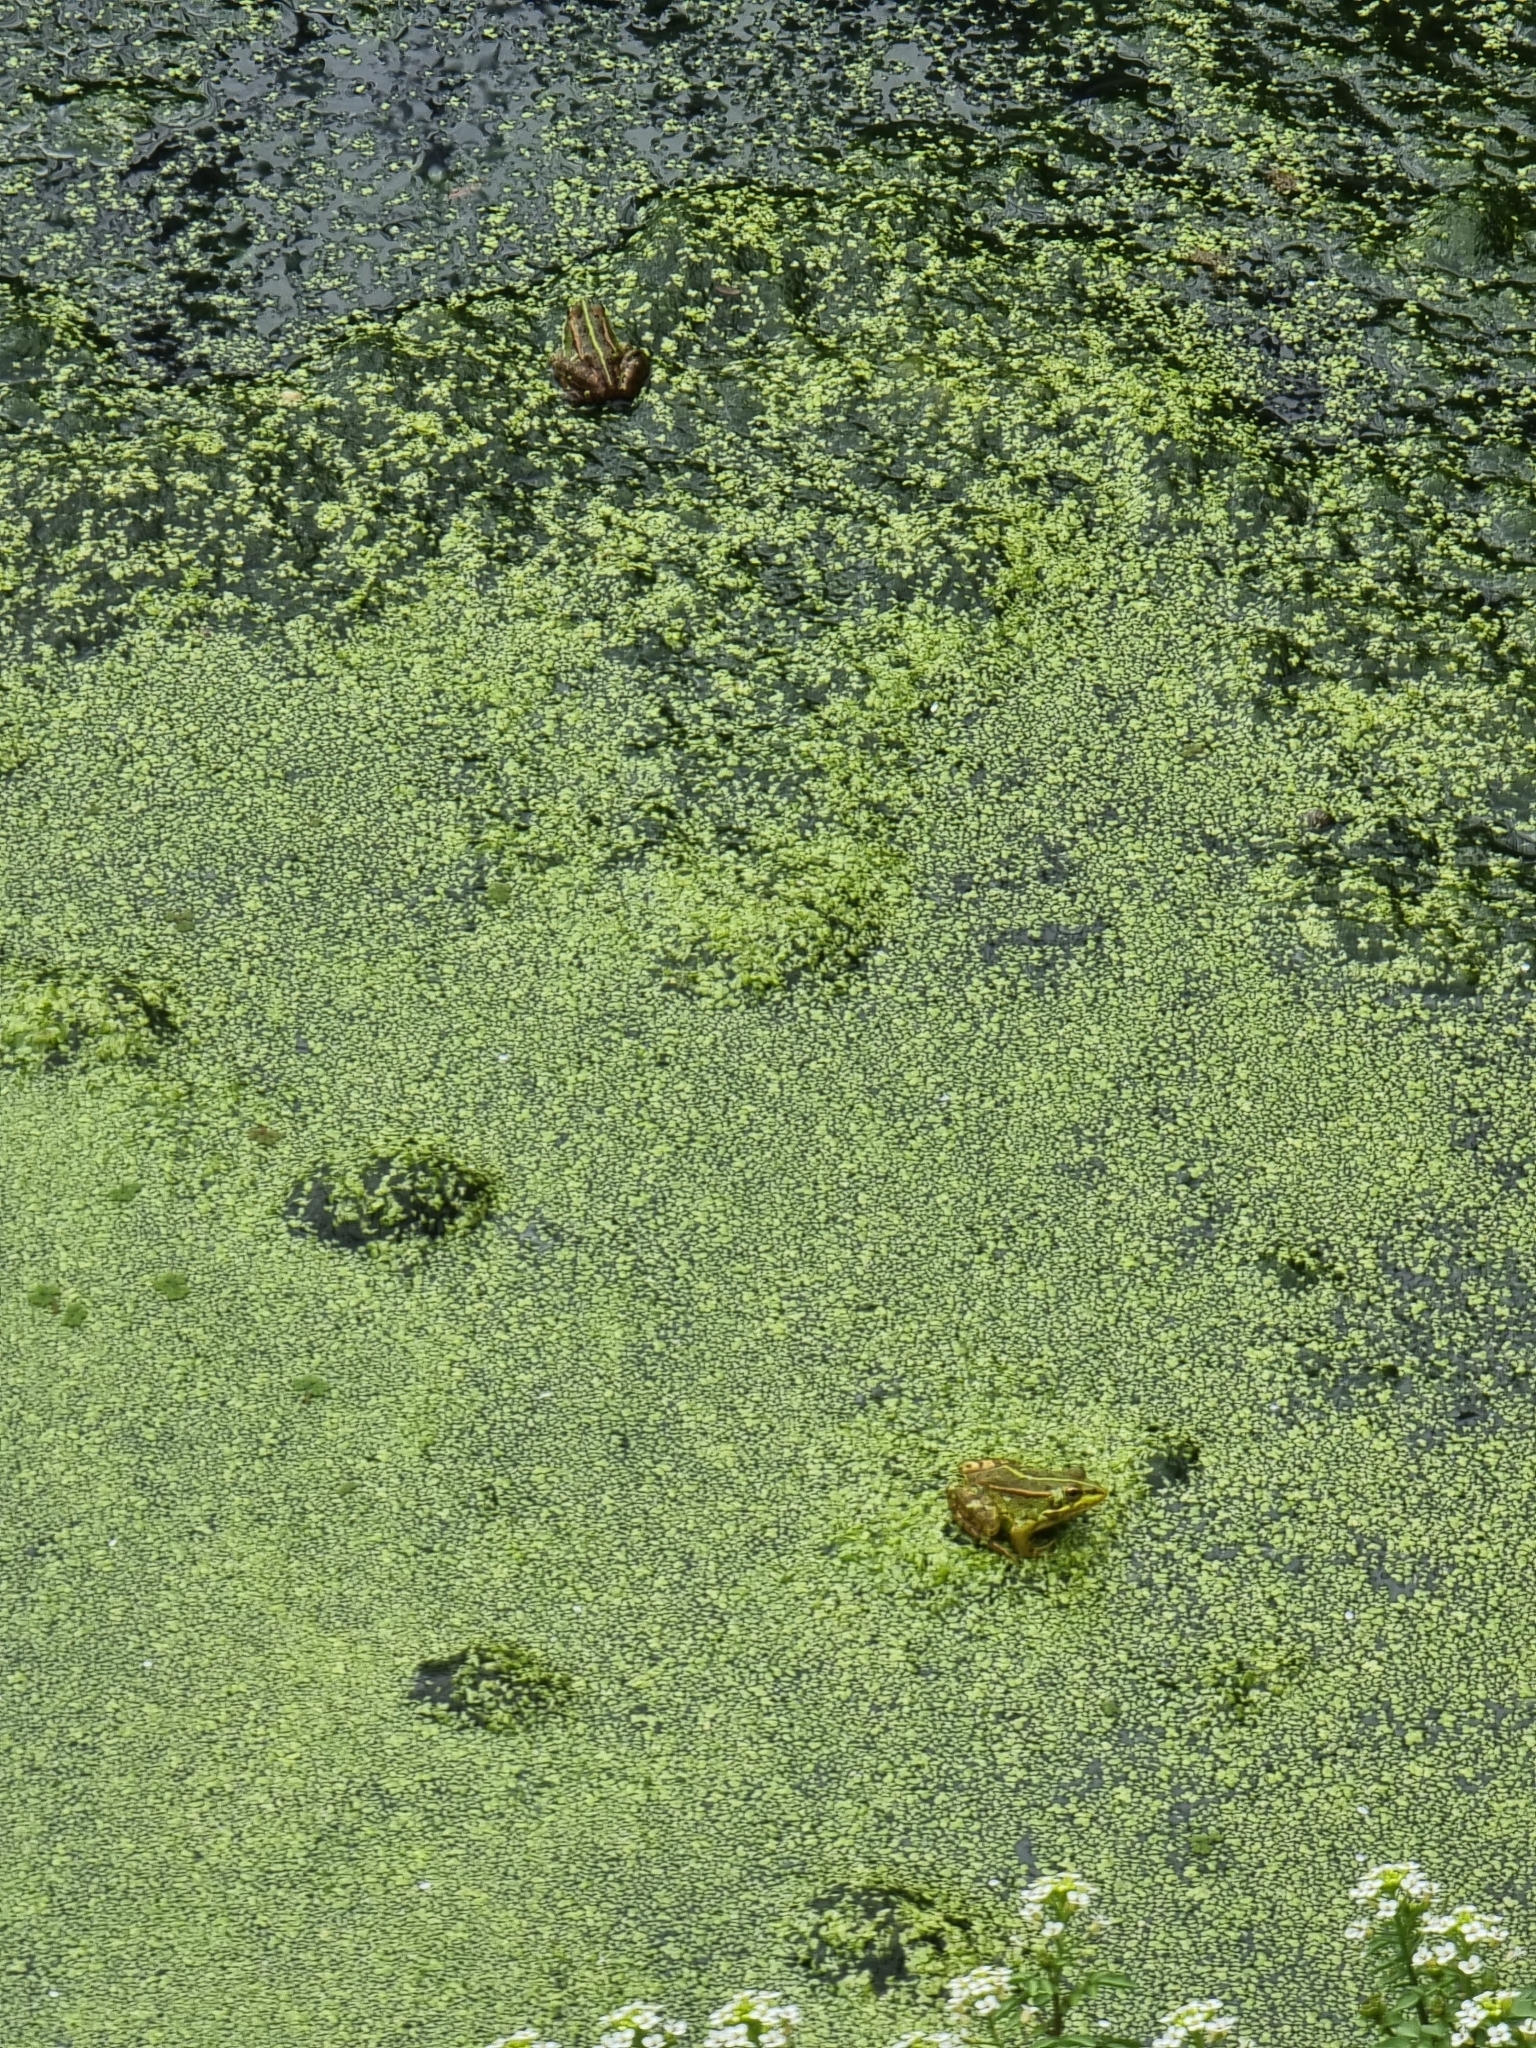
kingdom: Animalia
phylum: Chordata
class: Amphibia
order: Anura
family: Ranidae
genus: Pelophylax
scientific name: Pelophylax perezi
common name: Perez's frog
